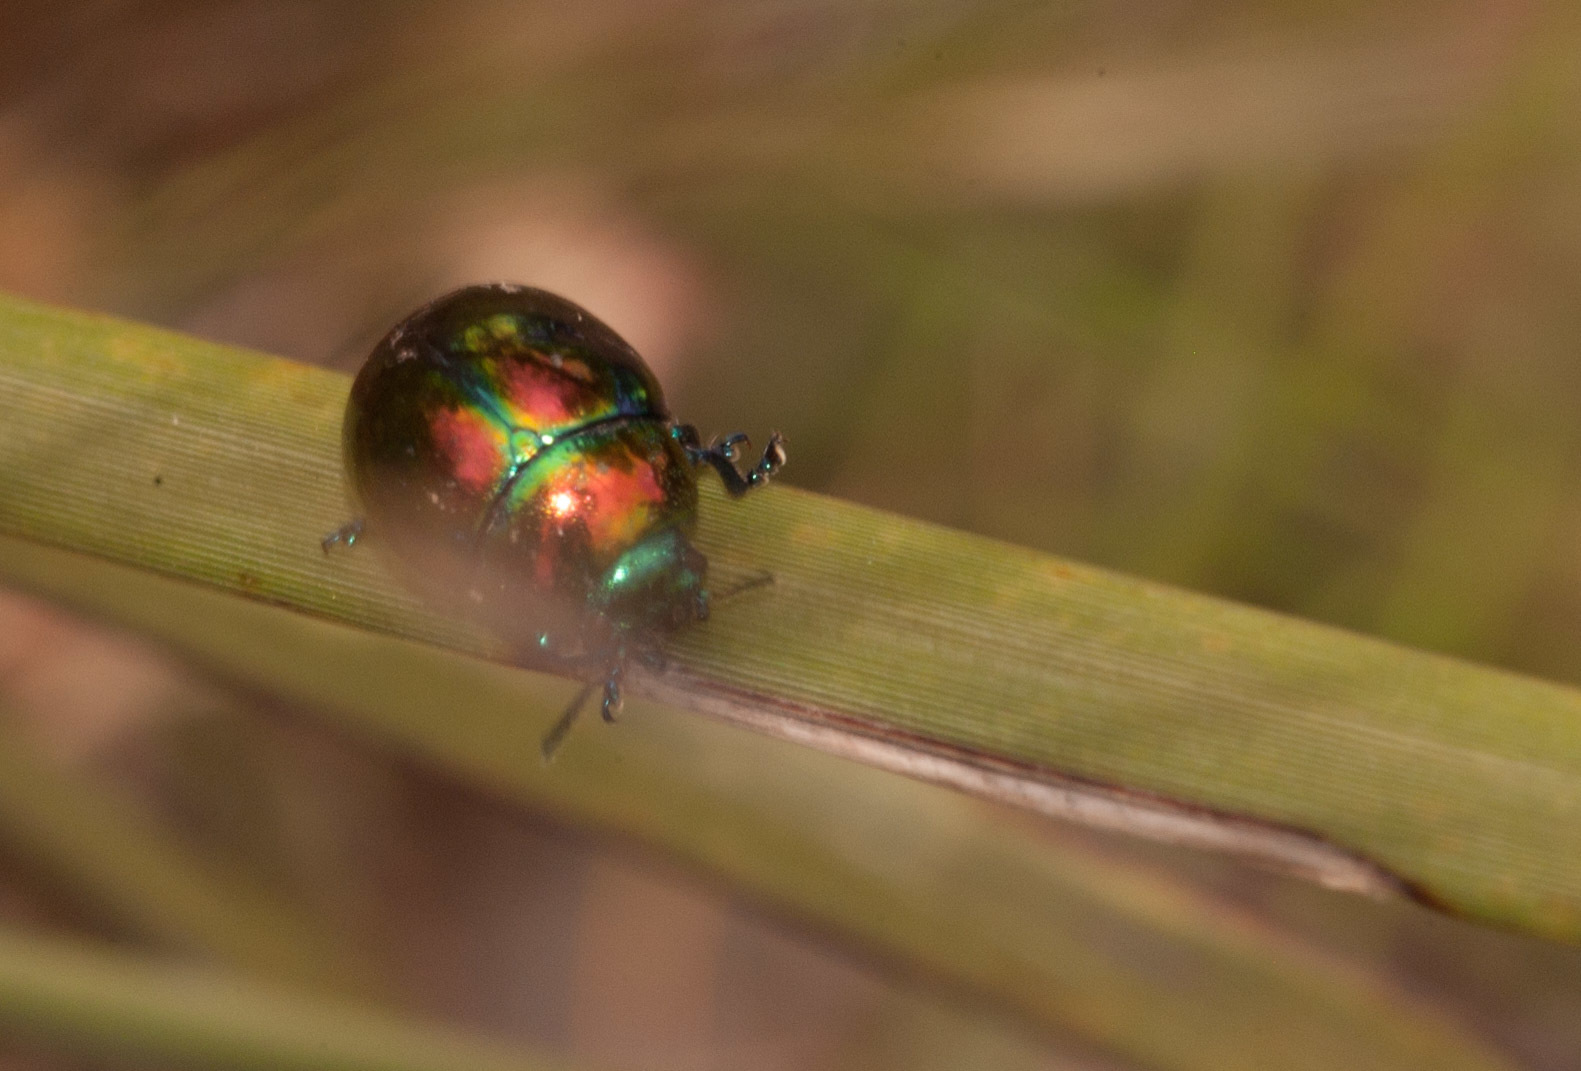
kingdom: Animalia
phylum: Arthropoda
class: Insecta
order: Coleoptera
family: Chrysomelidae
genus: Callidemum
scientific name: Callidemum
